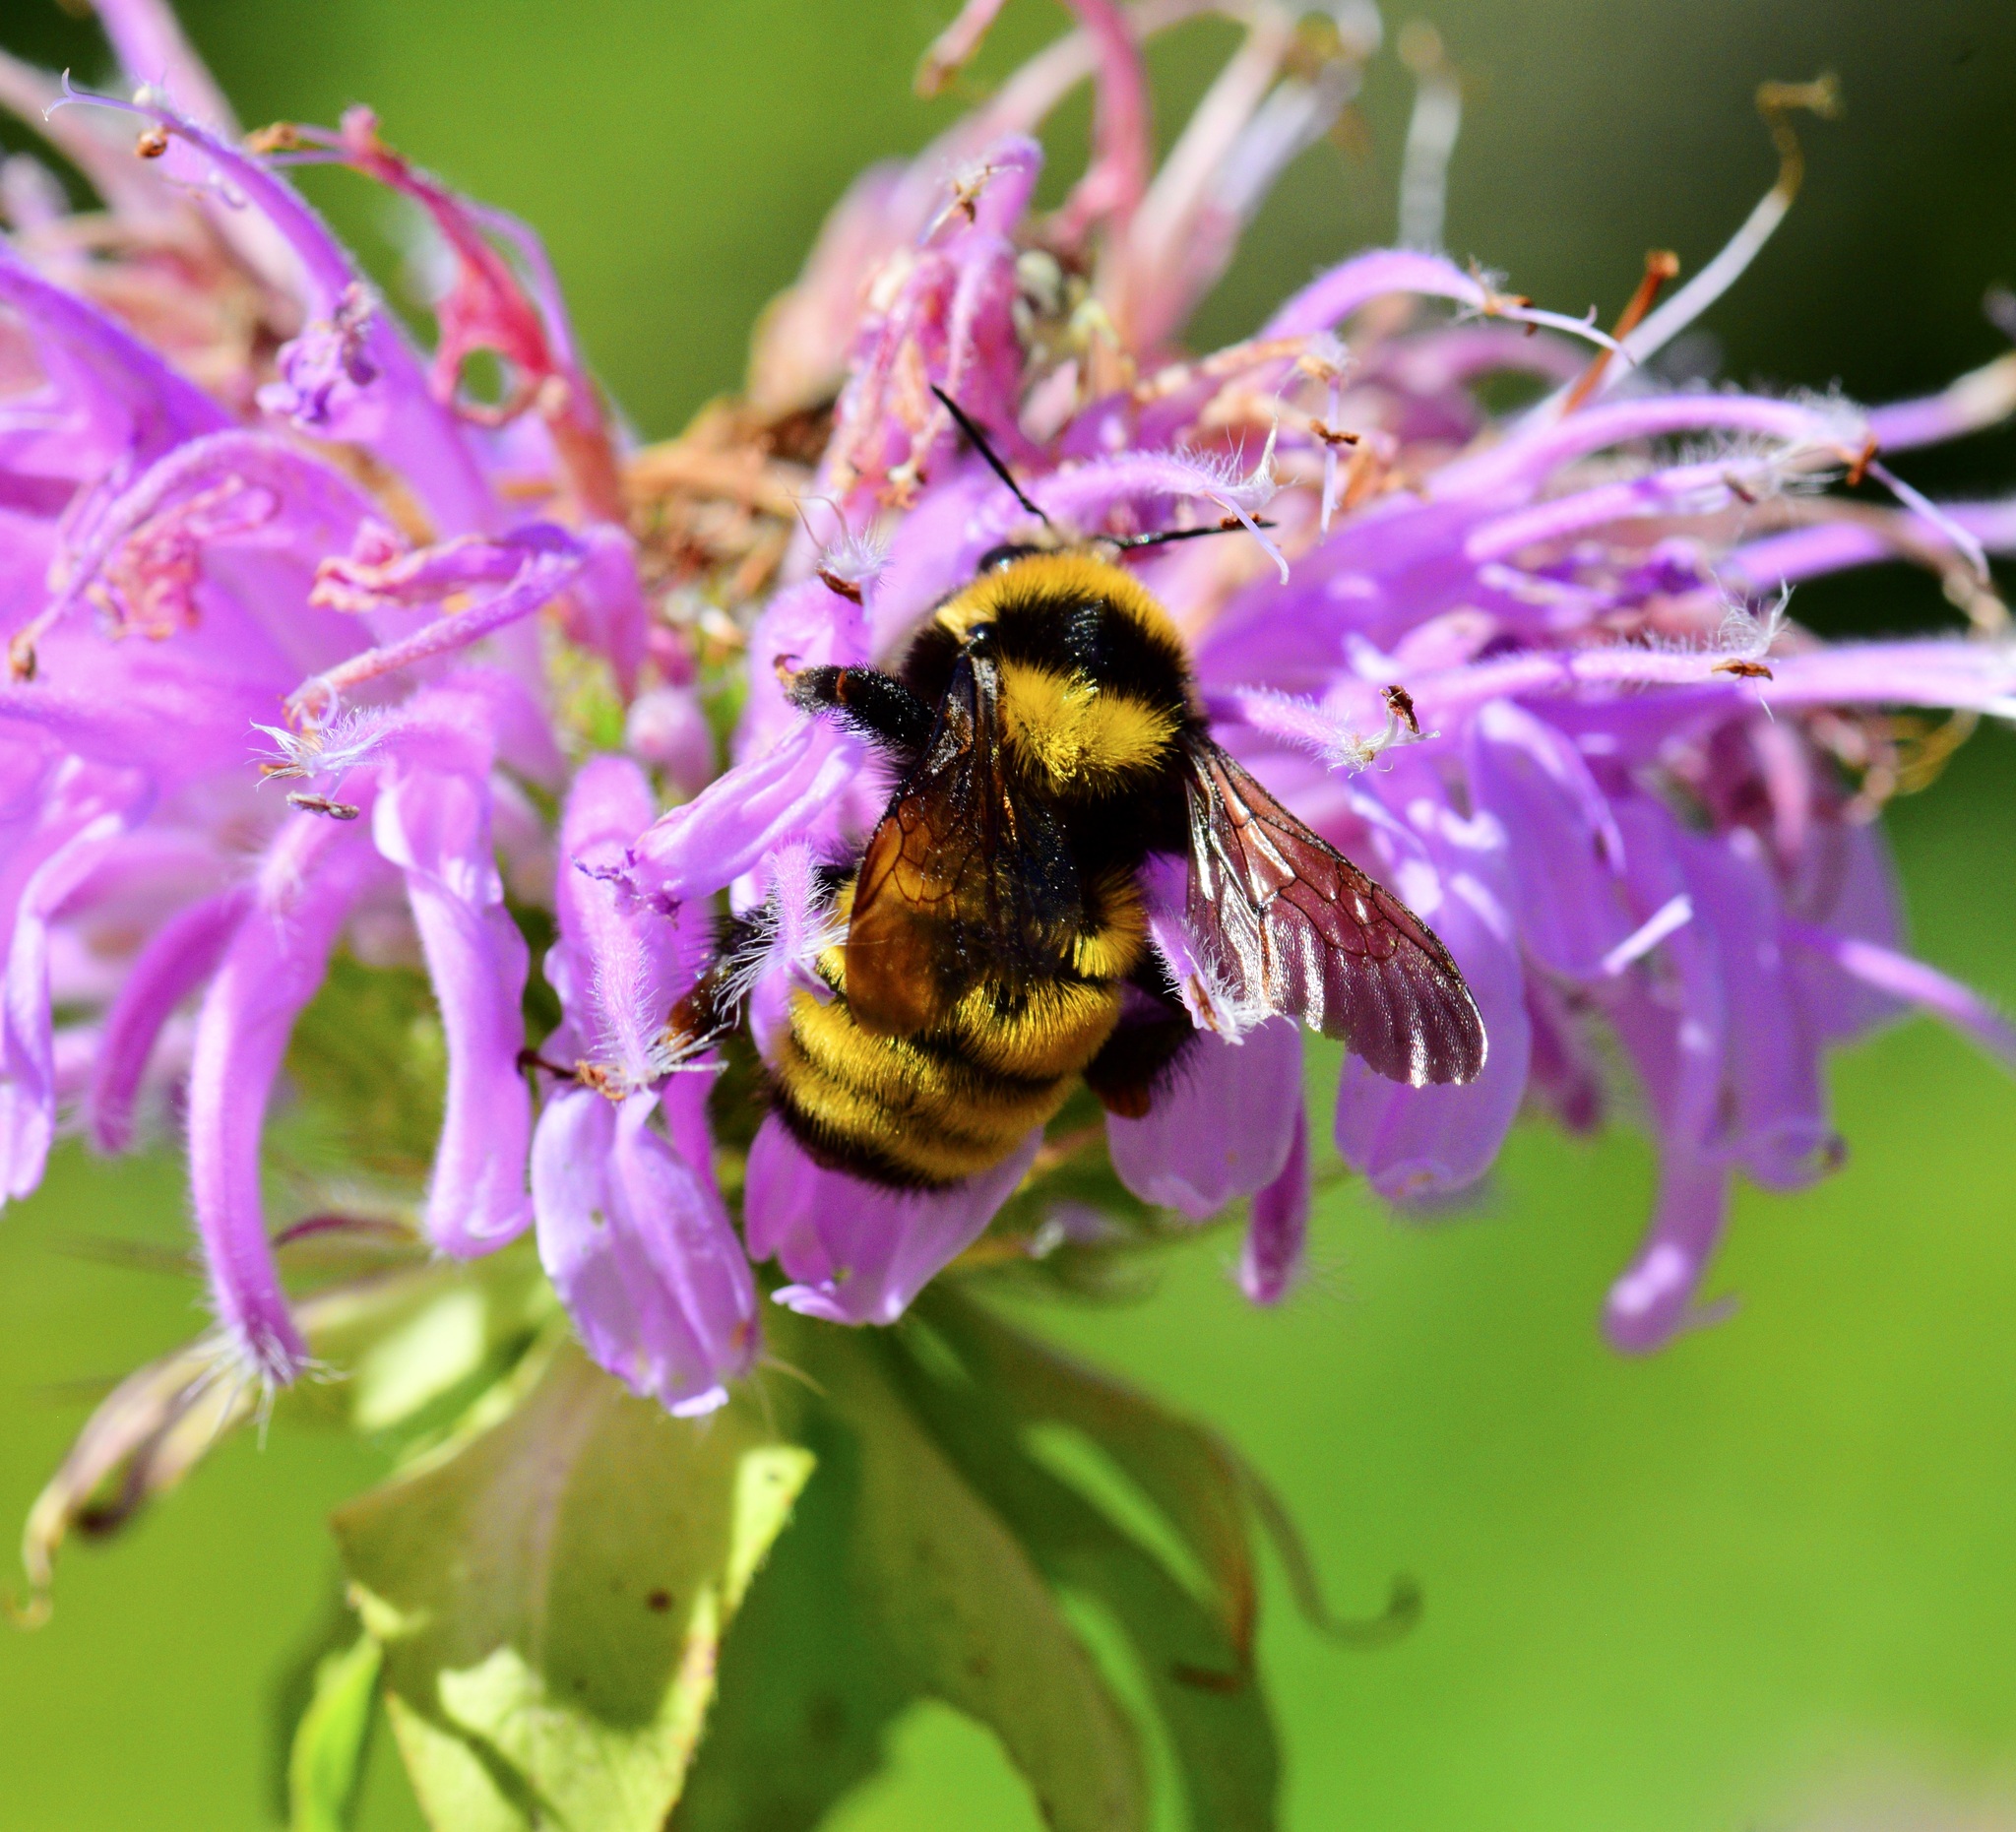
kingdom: Animalia
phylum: Arthropoda
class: Insecta
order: Hymenoptera
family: Apidae
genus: Bombus
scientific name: Bombus borealis
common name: Northern amber bumble bee
